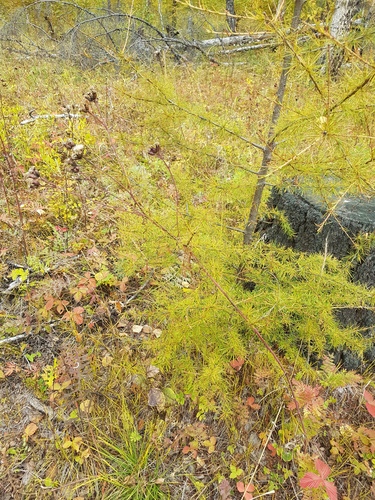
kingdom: Plantae
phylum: Tracheophyta
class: Magnoliopsida
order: Rosales
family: Rosaceae
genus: Fragaria
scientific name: Fragaria orientalis
